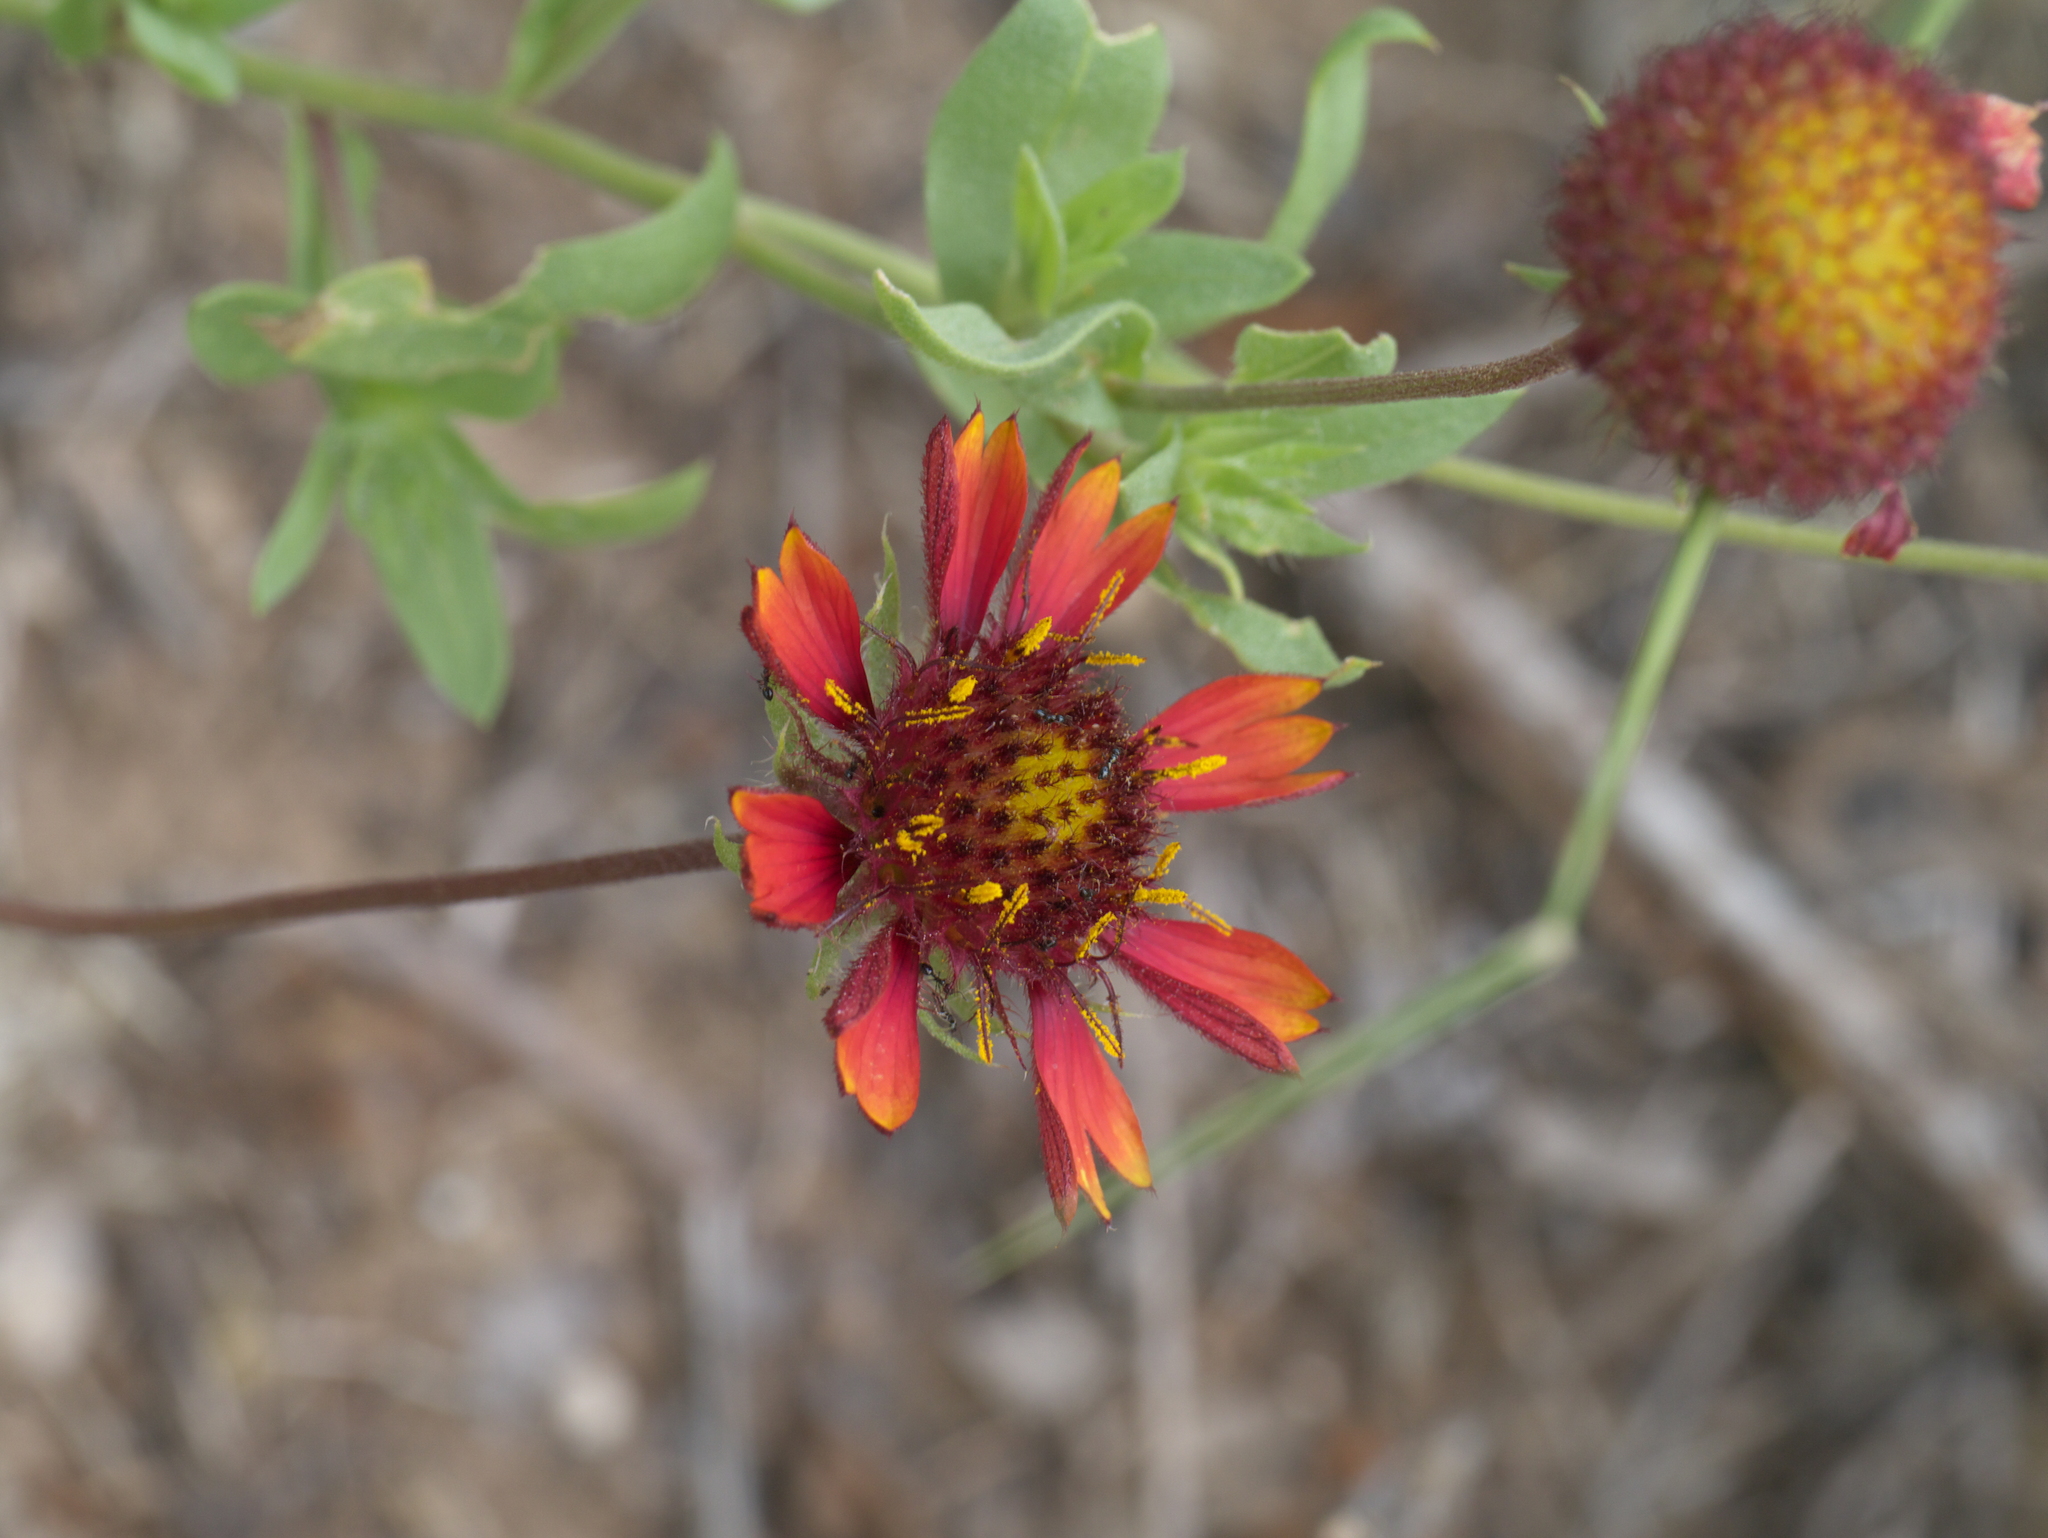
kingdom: Plantae
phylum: Tracheophyta
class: Magnoliopsida
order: Asterales
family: Asteraceae
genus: Gaillardia
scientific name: Gaillardia pulchella
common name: Firewheel
